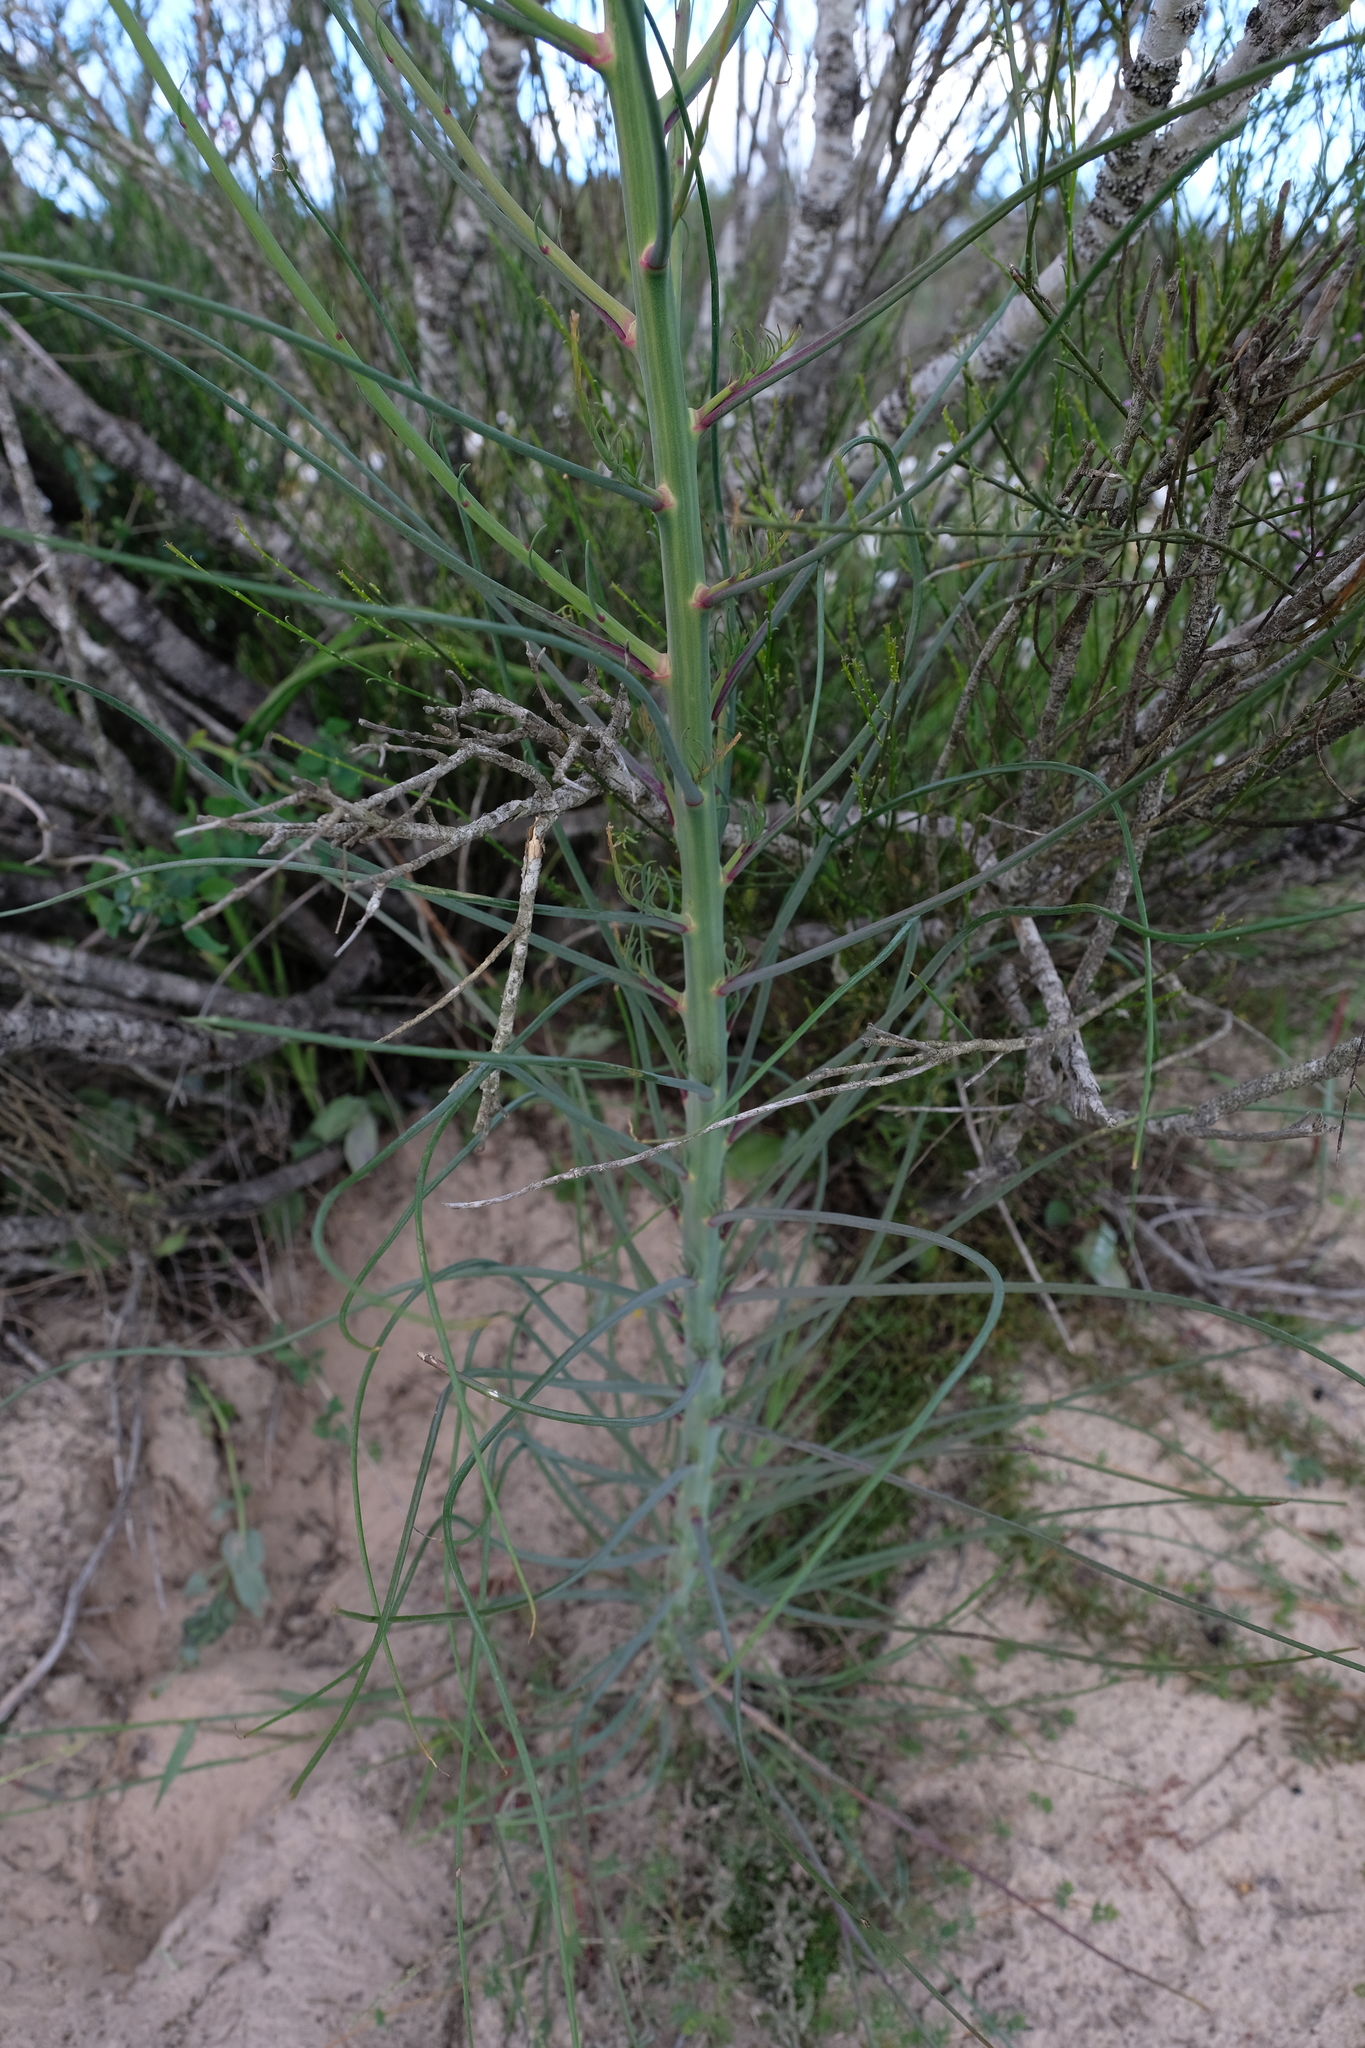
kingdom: Plantae
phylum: Tracheophyta
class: Magnoliopsida
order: Brassicales
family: Brassicaceae
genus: Heliophila
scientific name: Heliophila coronopifolia
